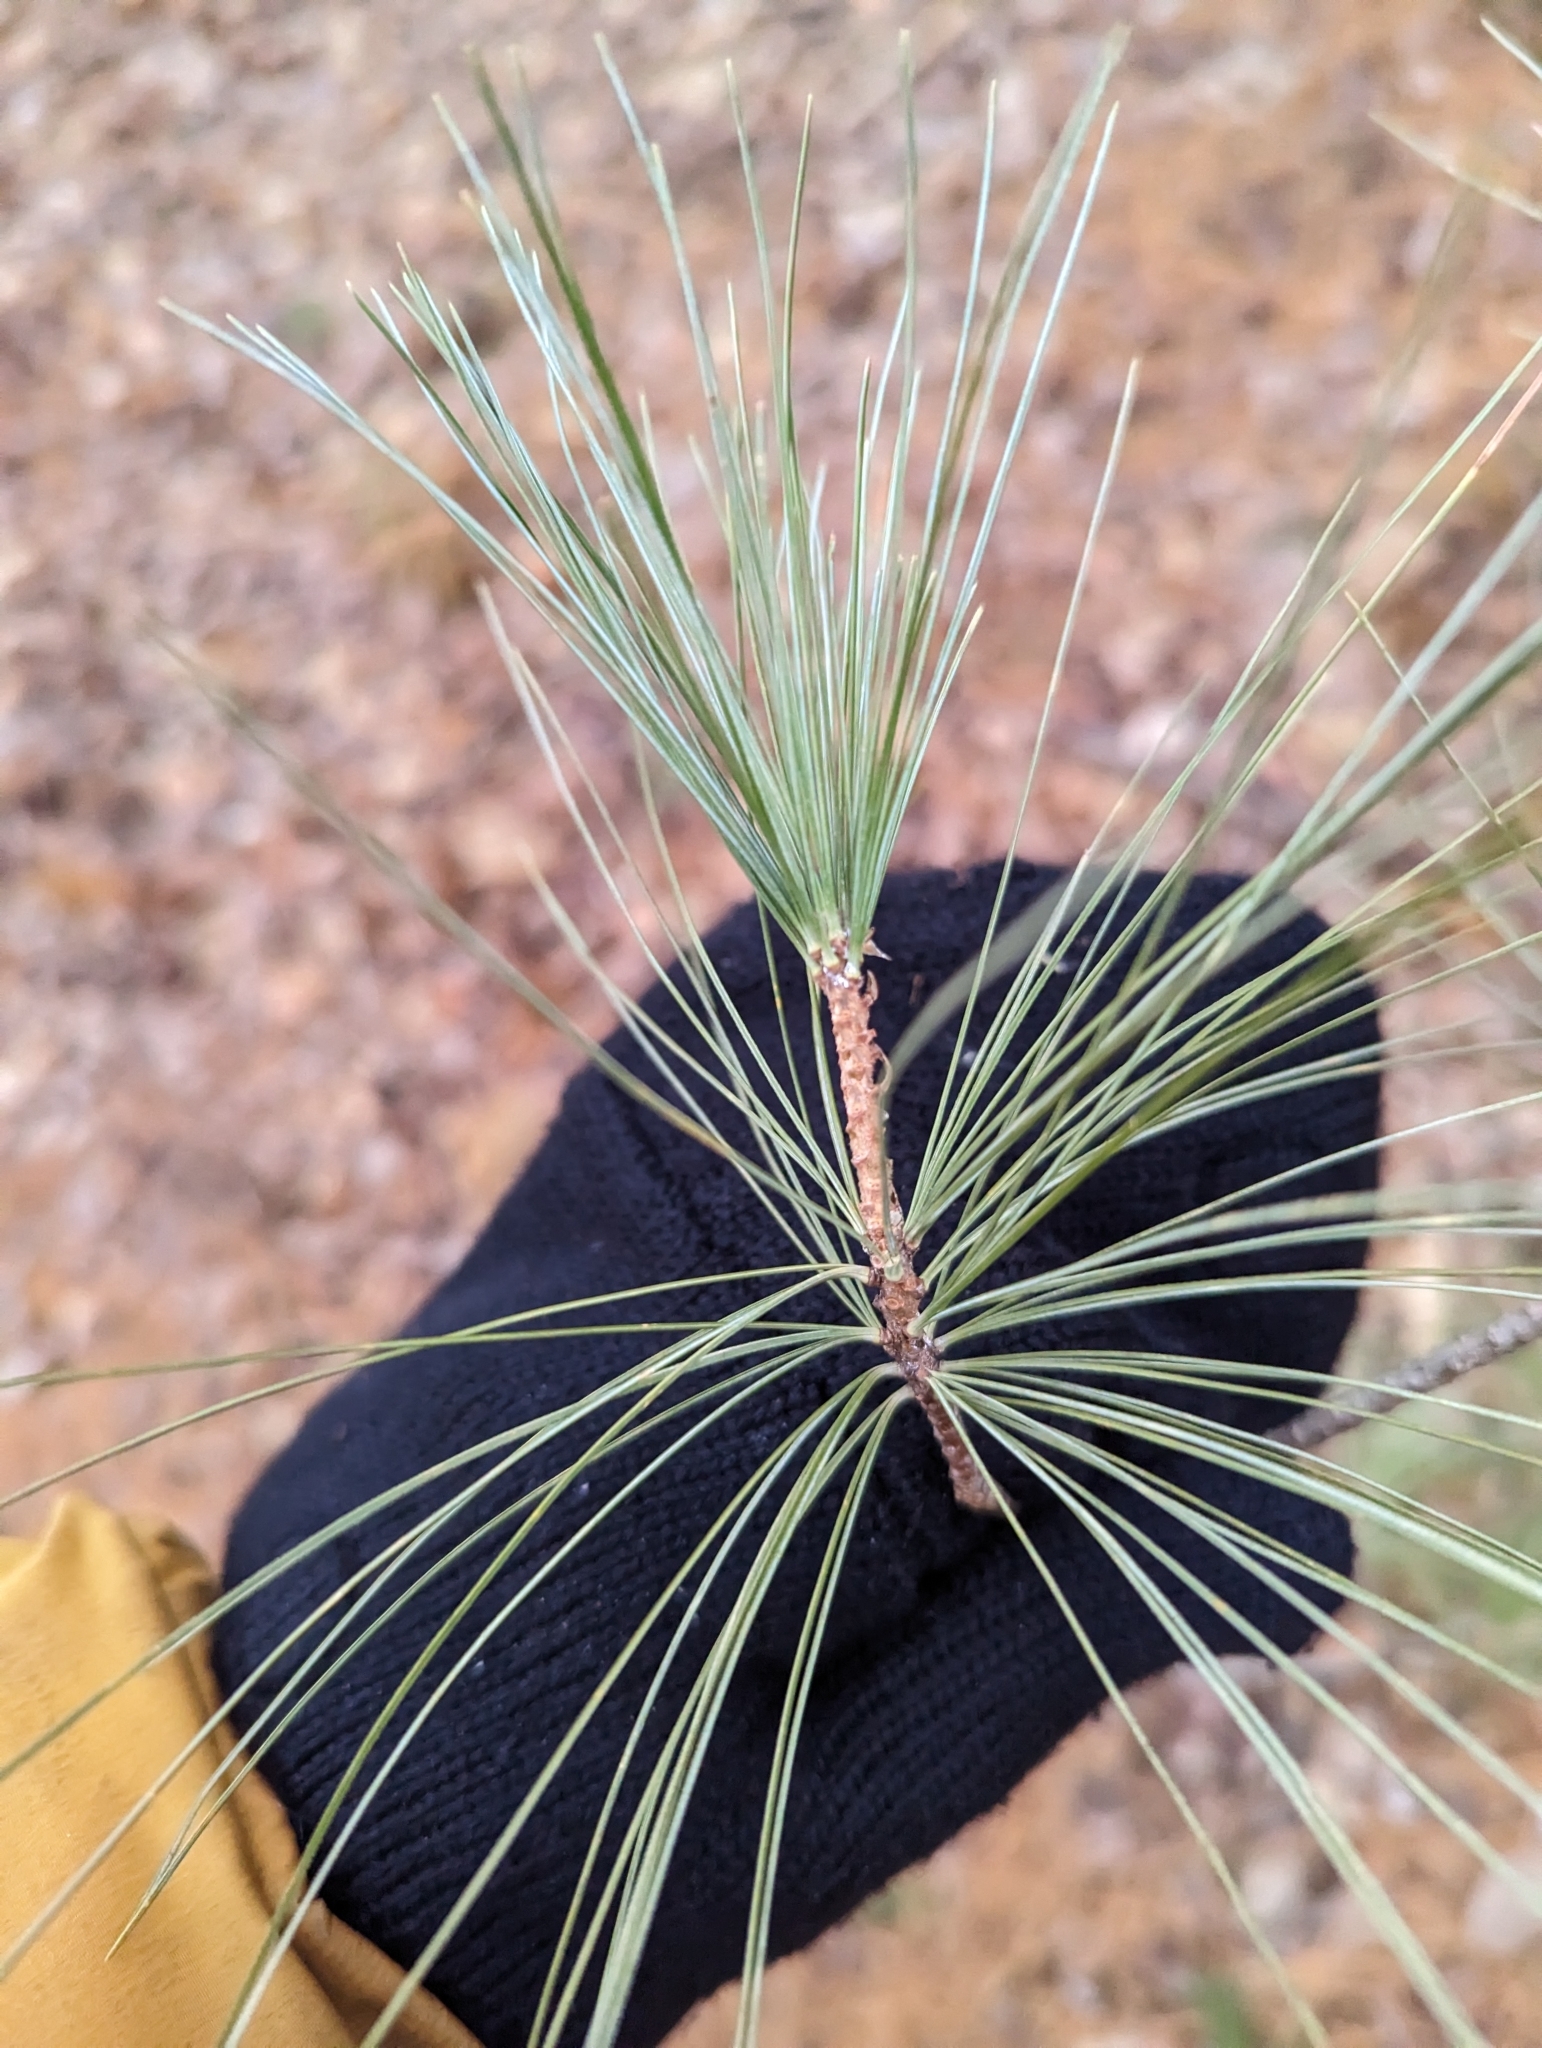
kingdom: Plantae
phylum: Tracheophyta
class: Pinopsida
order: Pinales
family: Pinaceae
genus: Pinus
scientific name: Pinus strobus
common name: Weymouth pine
